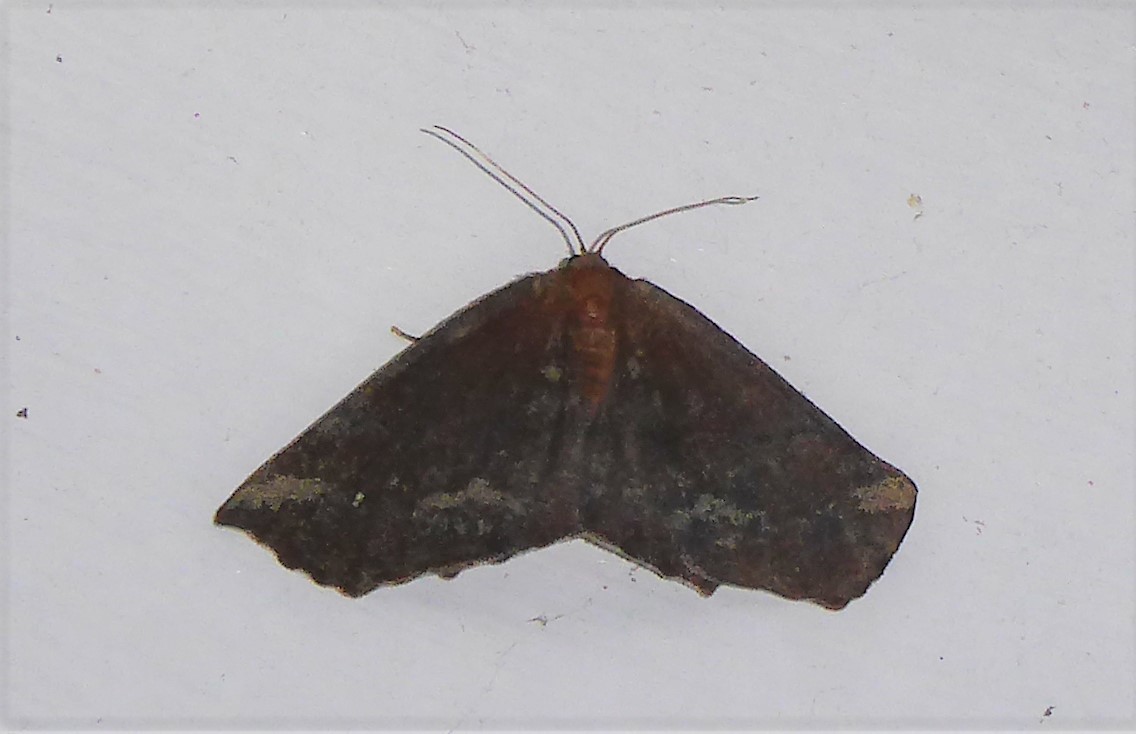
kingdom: Animalia
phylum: Arthropoda
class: Insecta
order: Lepidoptera
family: Geometridae
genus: Xyridacma
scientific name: Xyridacma ustaria
